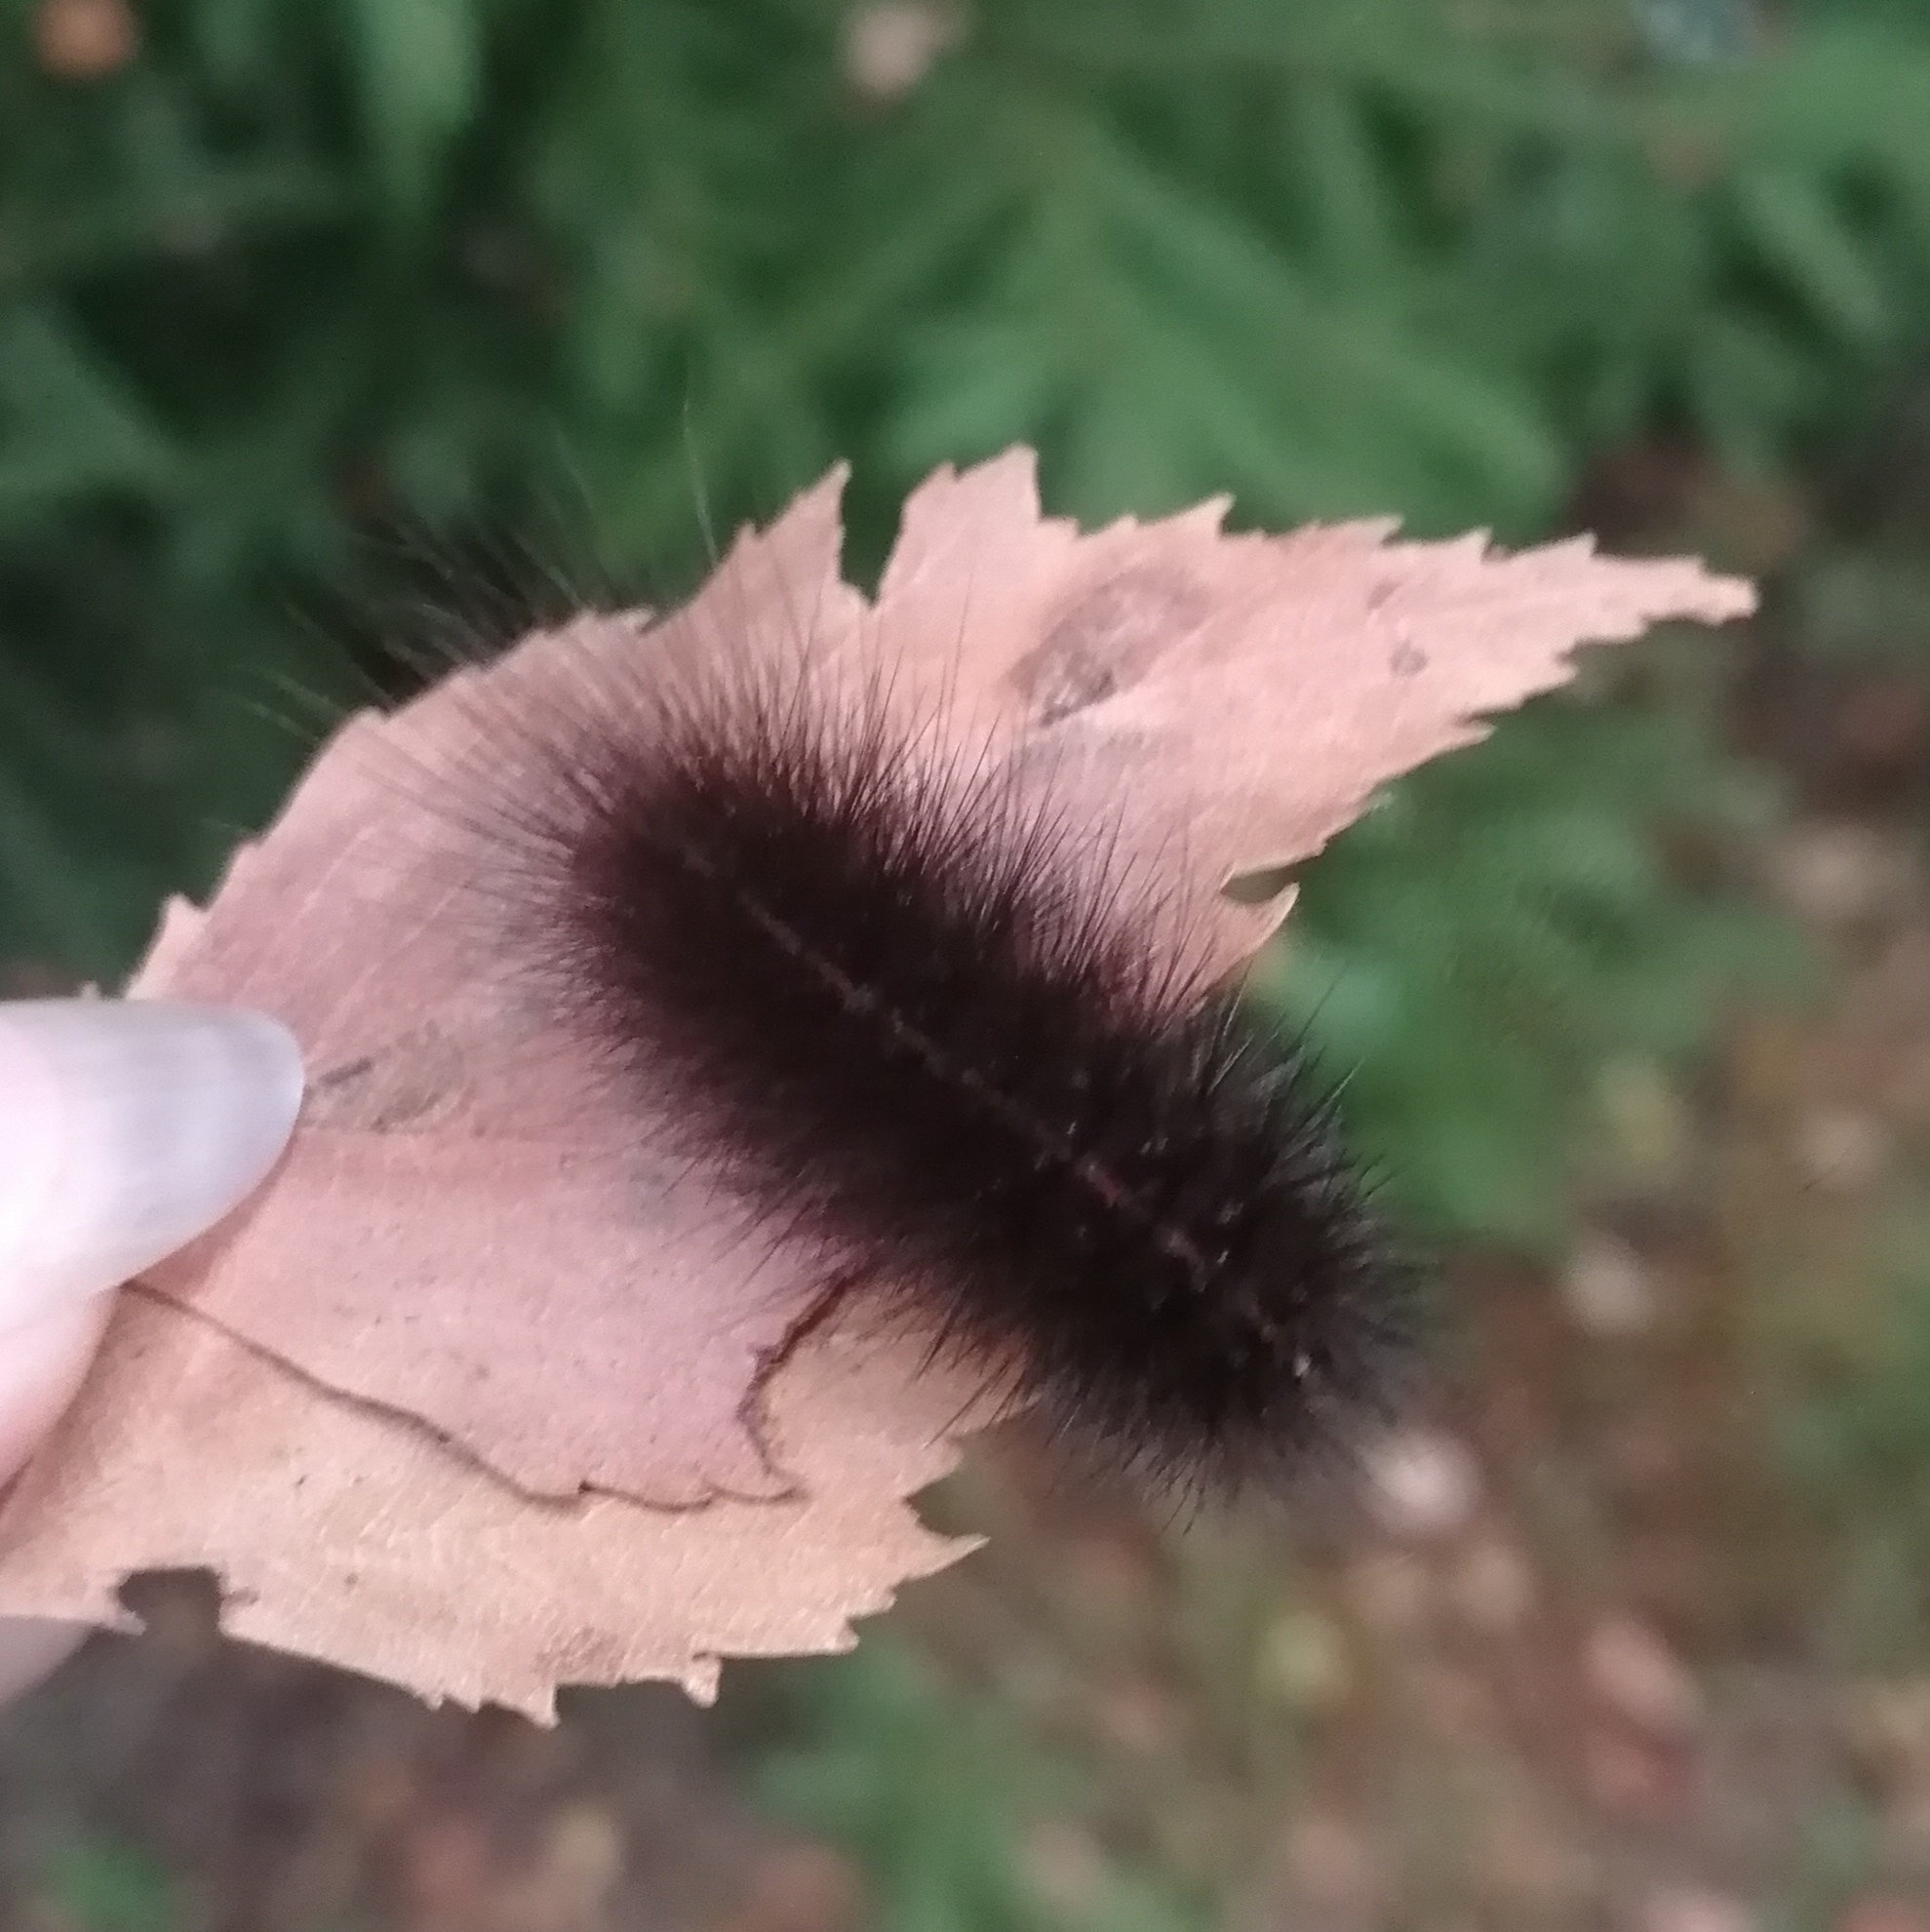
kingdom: Animalia
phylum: Arthropoda
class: Insecta
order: Lepidoptera
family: Erebidae
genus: Spilosoma
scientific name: Spilosoma lubricipeda
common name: White ermine
